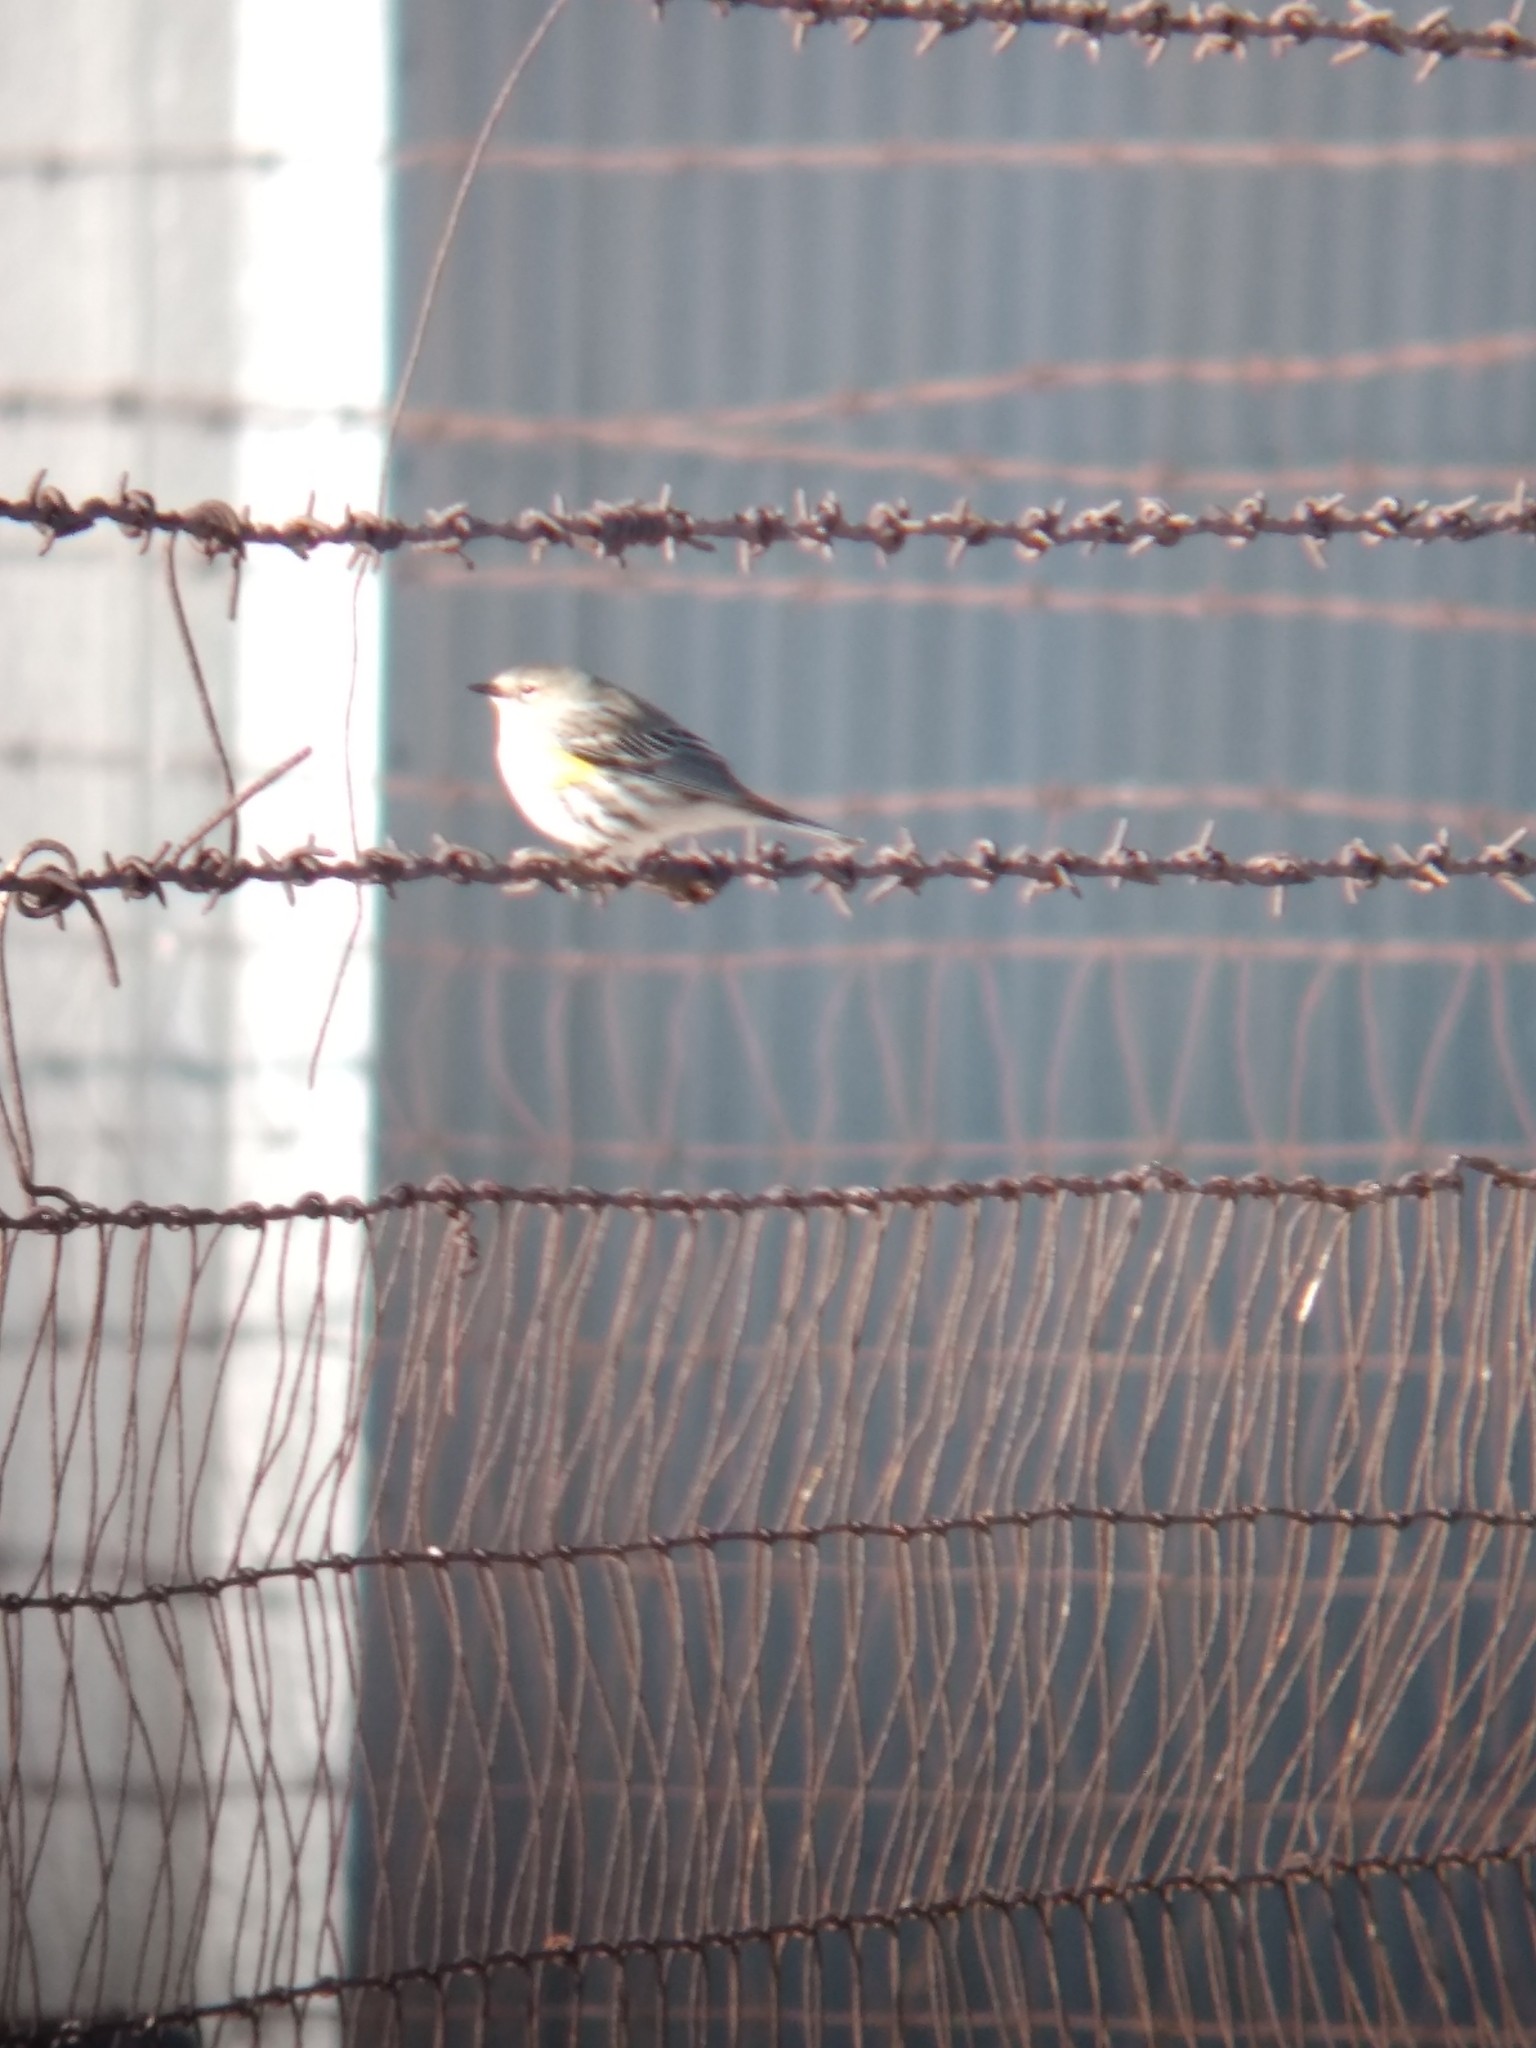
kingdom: Animalia
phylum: Chordata
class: Aves
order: Passeriformes
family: Parulidae
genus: Setophaga
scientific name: Setophaga coronata
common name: Myrtle warbler
